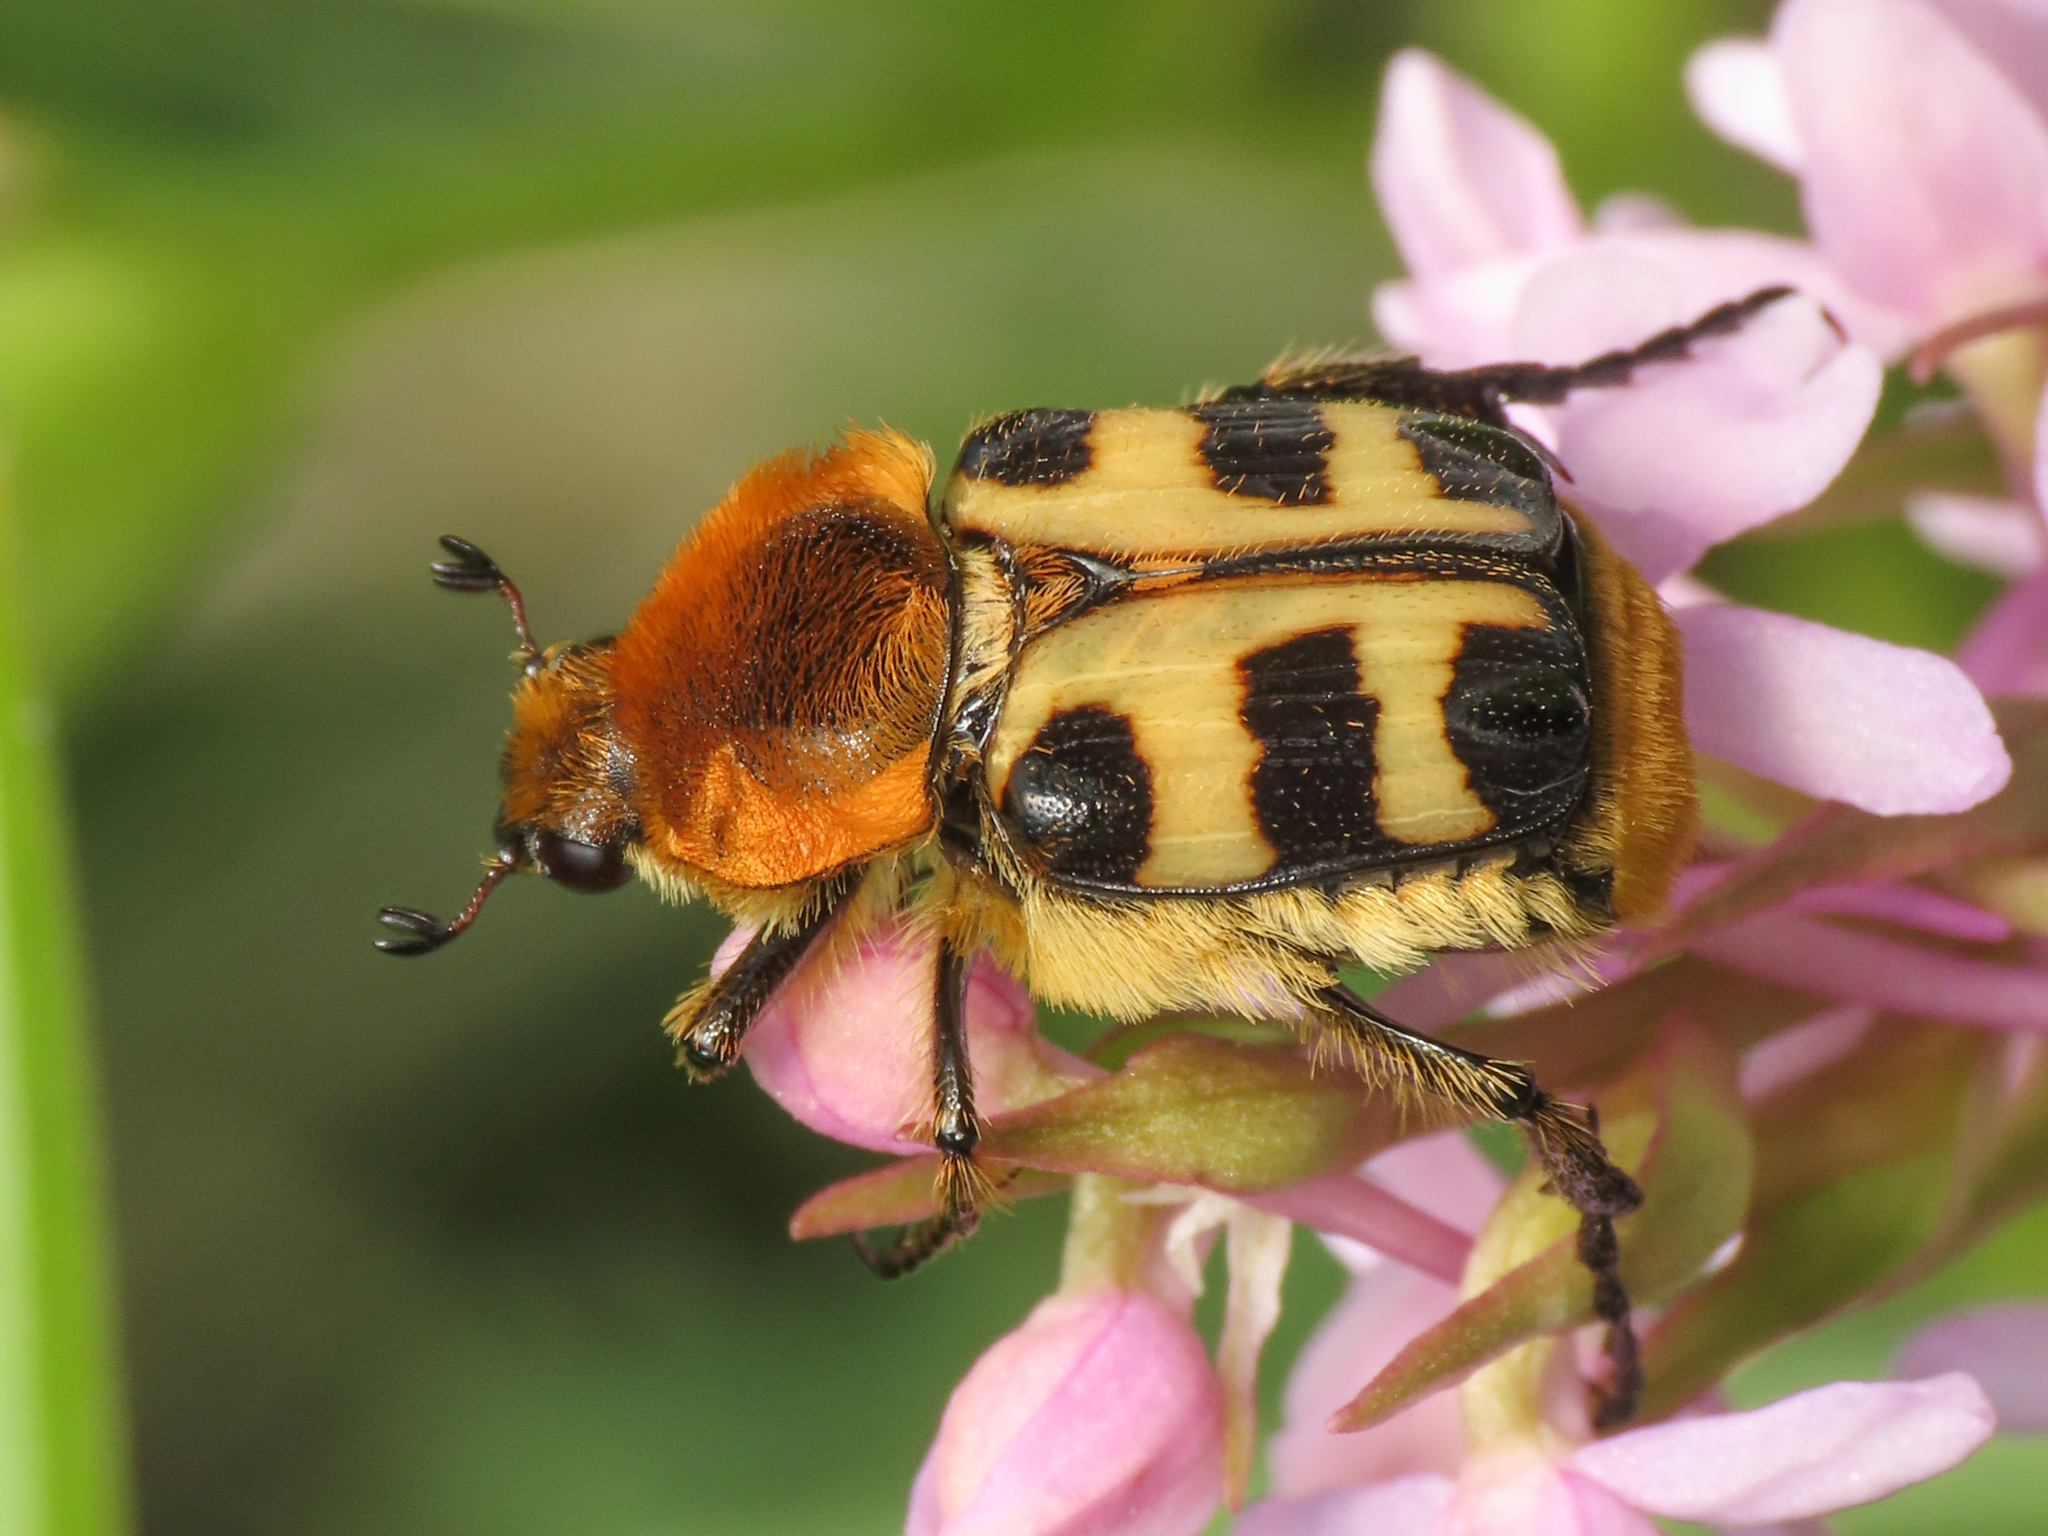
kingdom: Animalia
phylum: Arthropoda
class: Insecta
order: Coleoptera
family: Scarabaeidae
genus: Trichius
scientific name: Trichius gallicus
